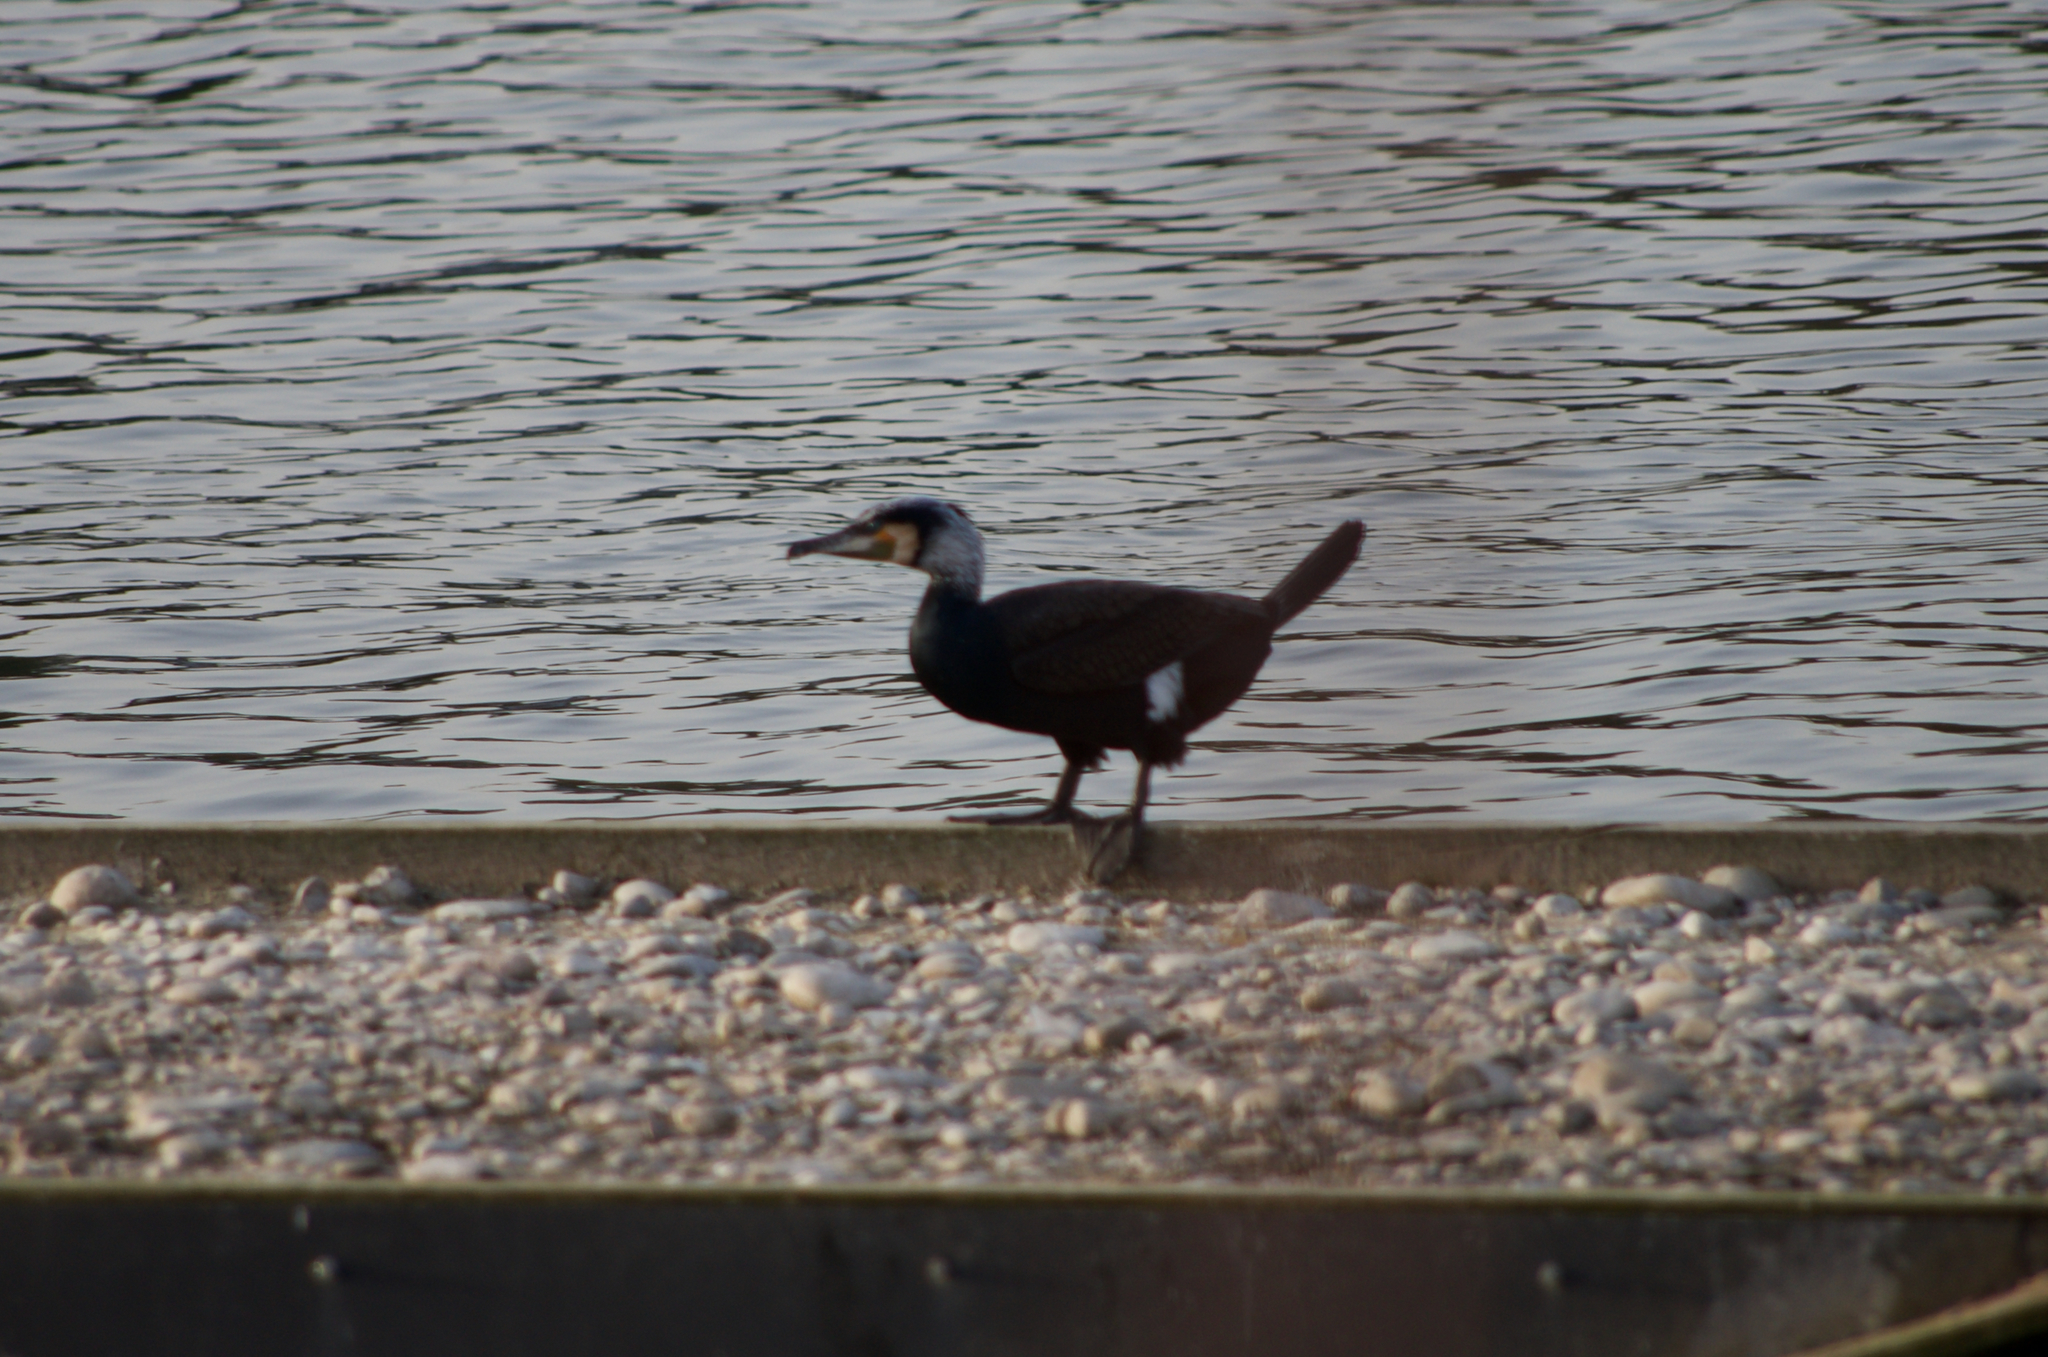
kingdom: Animalia
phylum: Chordata
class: Aves
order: Suliformes
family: Phalacrocoracidae
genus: Phalacrocorax
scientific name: Phalacrocorax carbo
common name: Great cormorant
